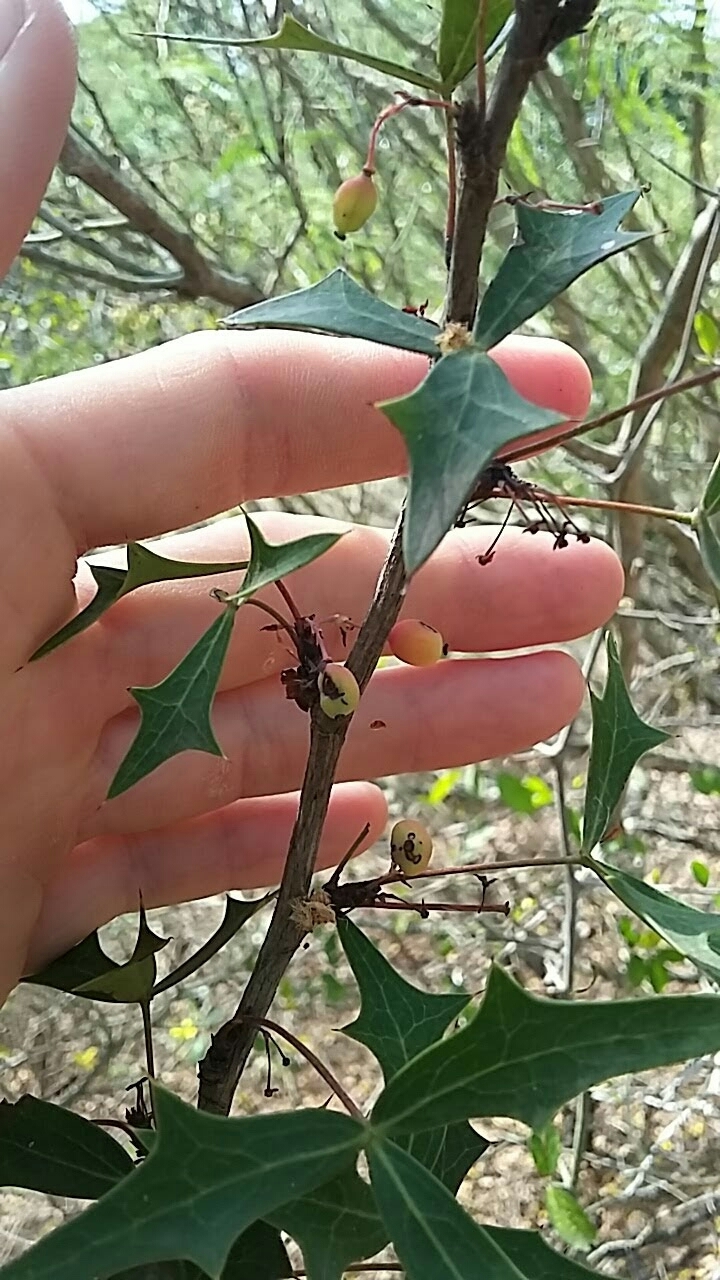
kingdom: Plantae
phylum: Tracheophyta
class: Magnoliopsida
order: Ranunculales
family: Berberidaceae
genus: Alloberberis
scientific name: Alloberberis trifoliolata
